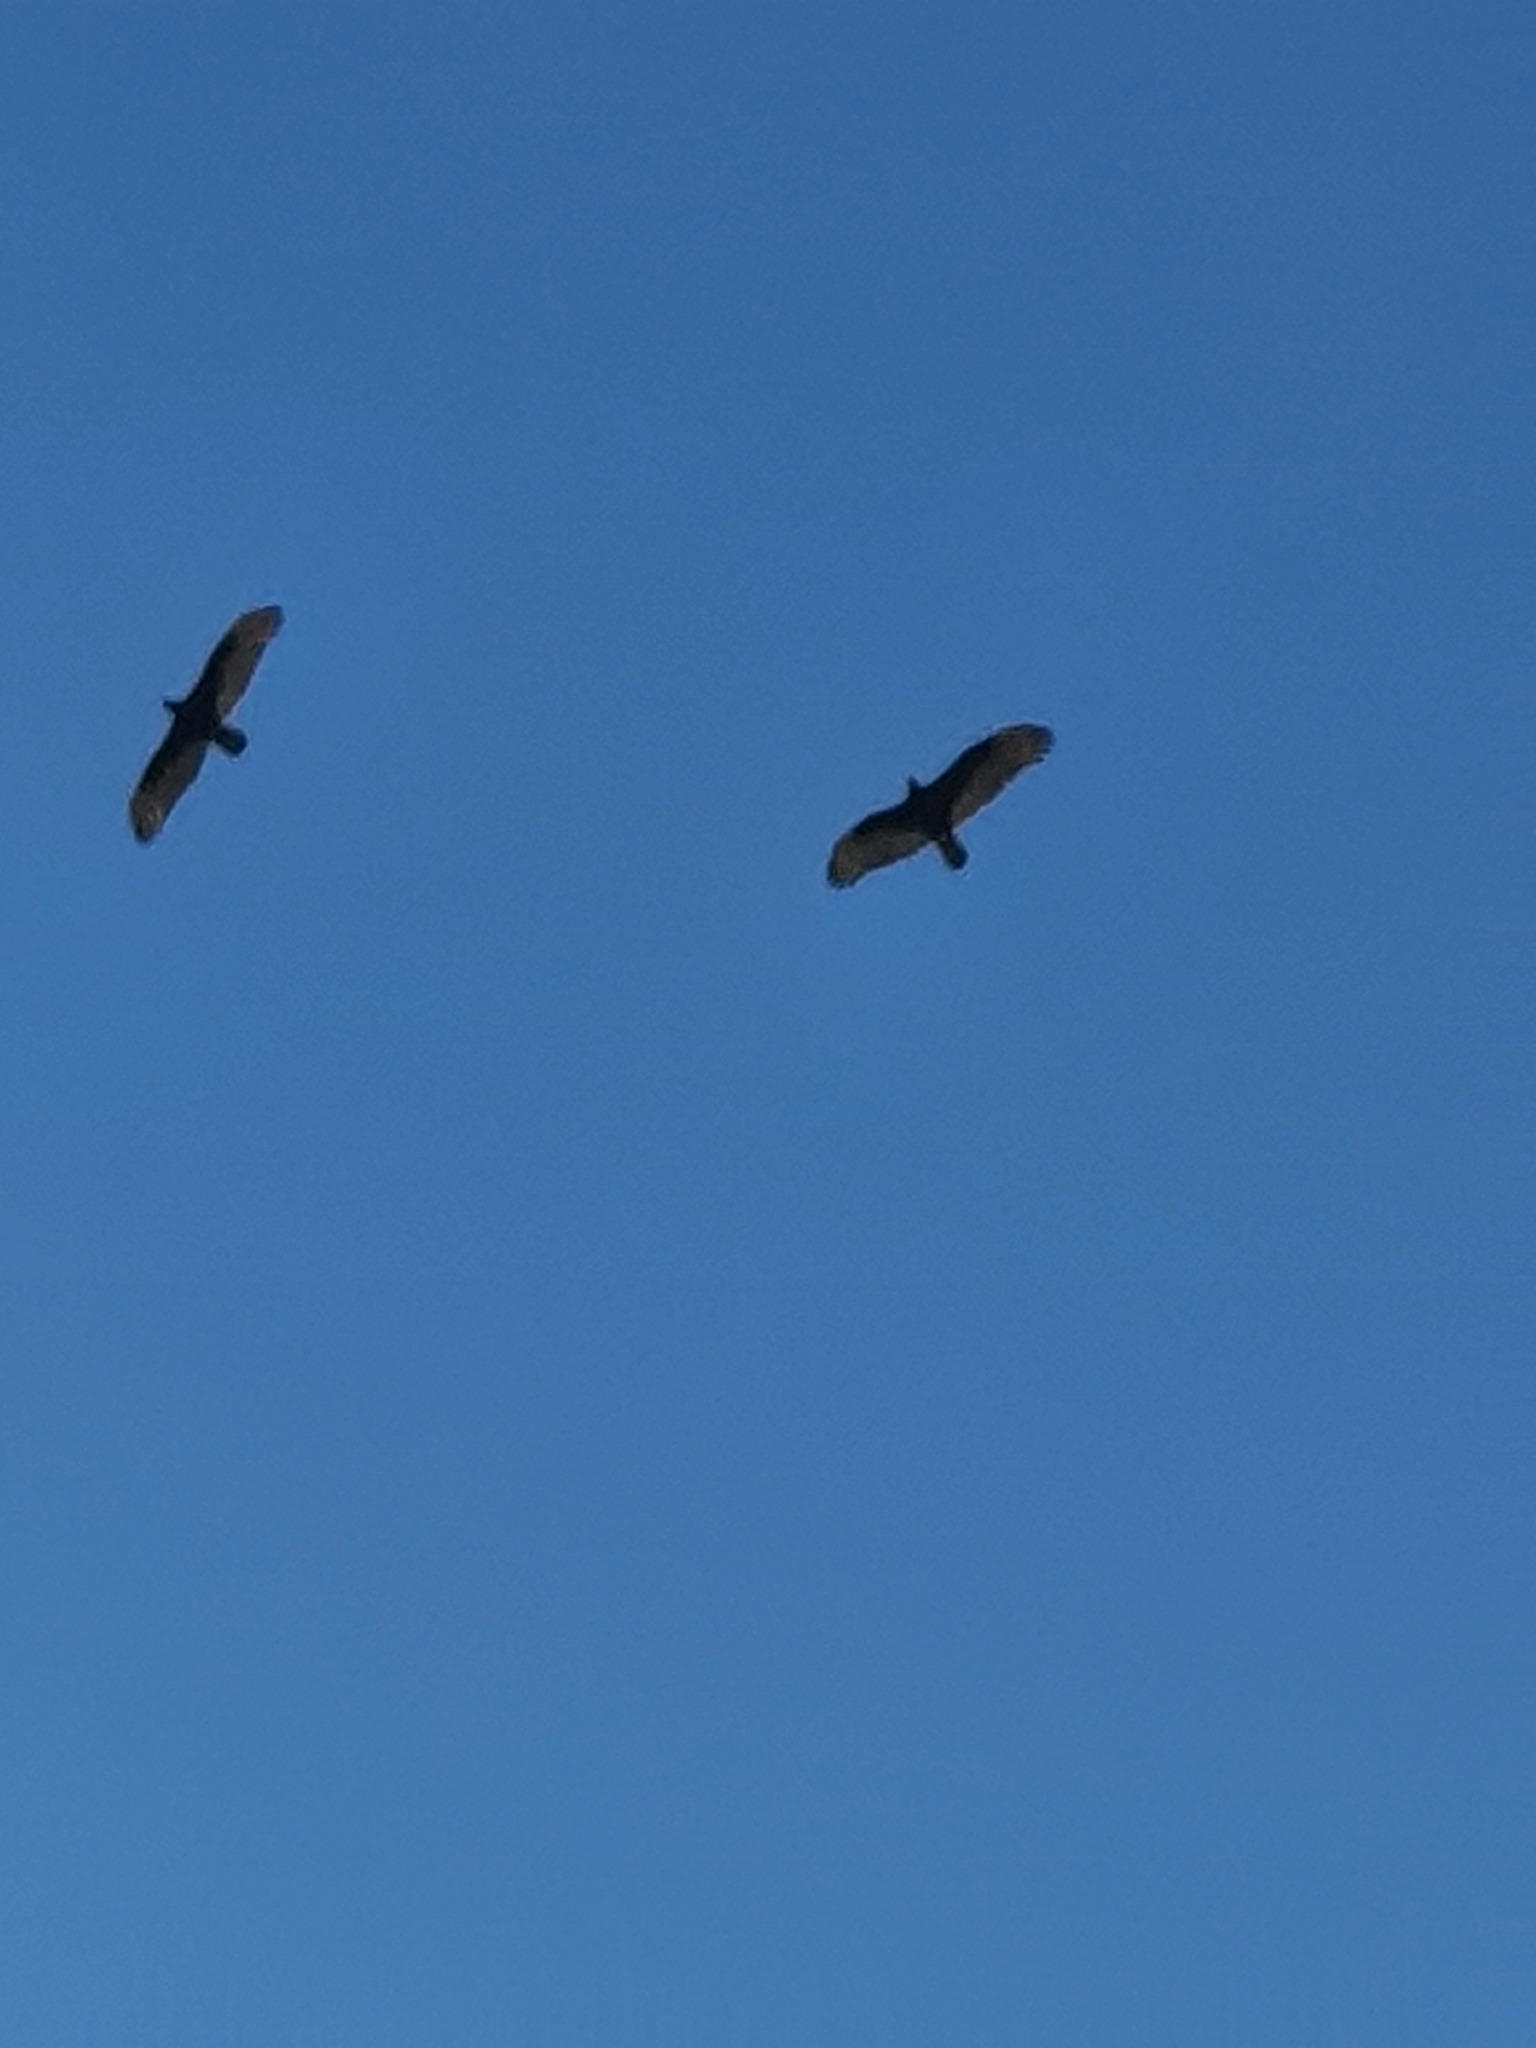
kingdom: Animalia
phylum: Chordata
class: Aves
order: Accipitriformes
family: Cathartidae
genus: Cathartes
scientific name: Cathartes aura
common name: Turkey vulture
